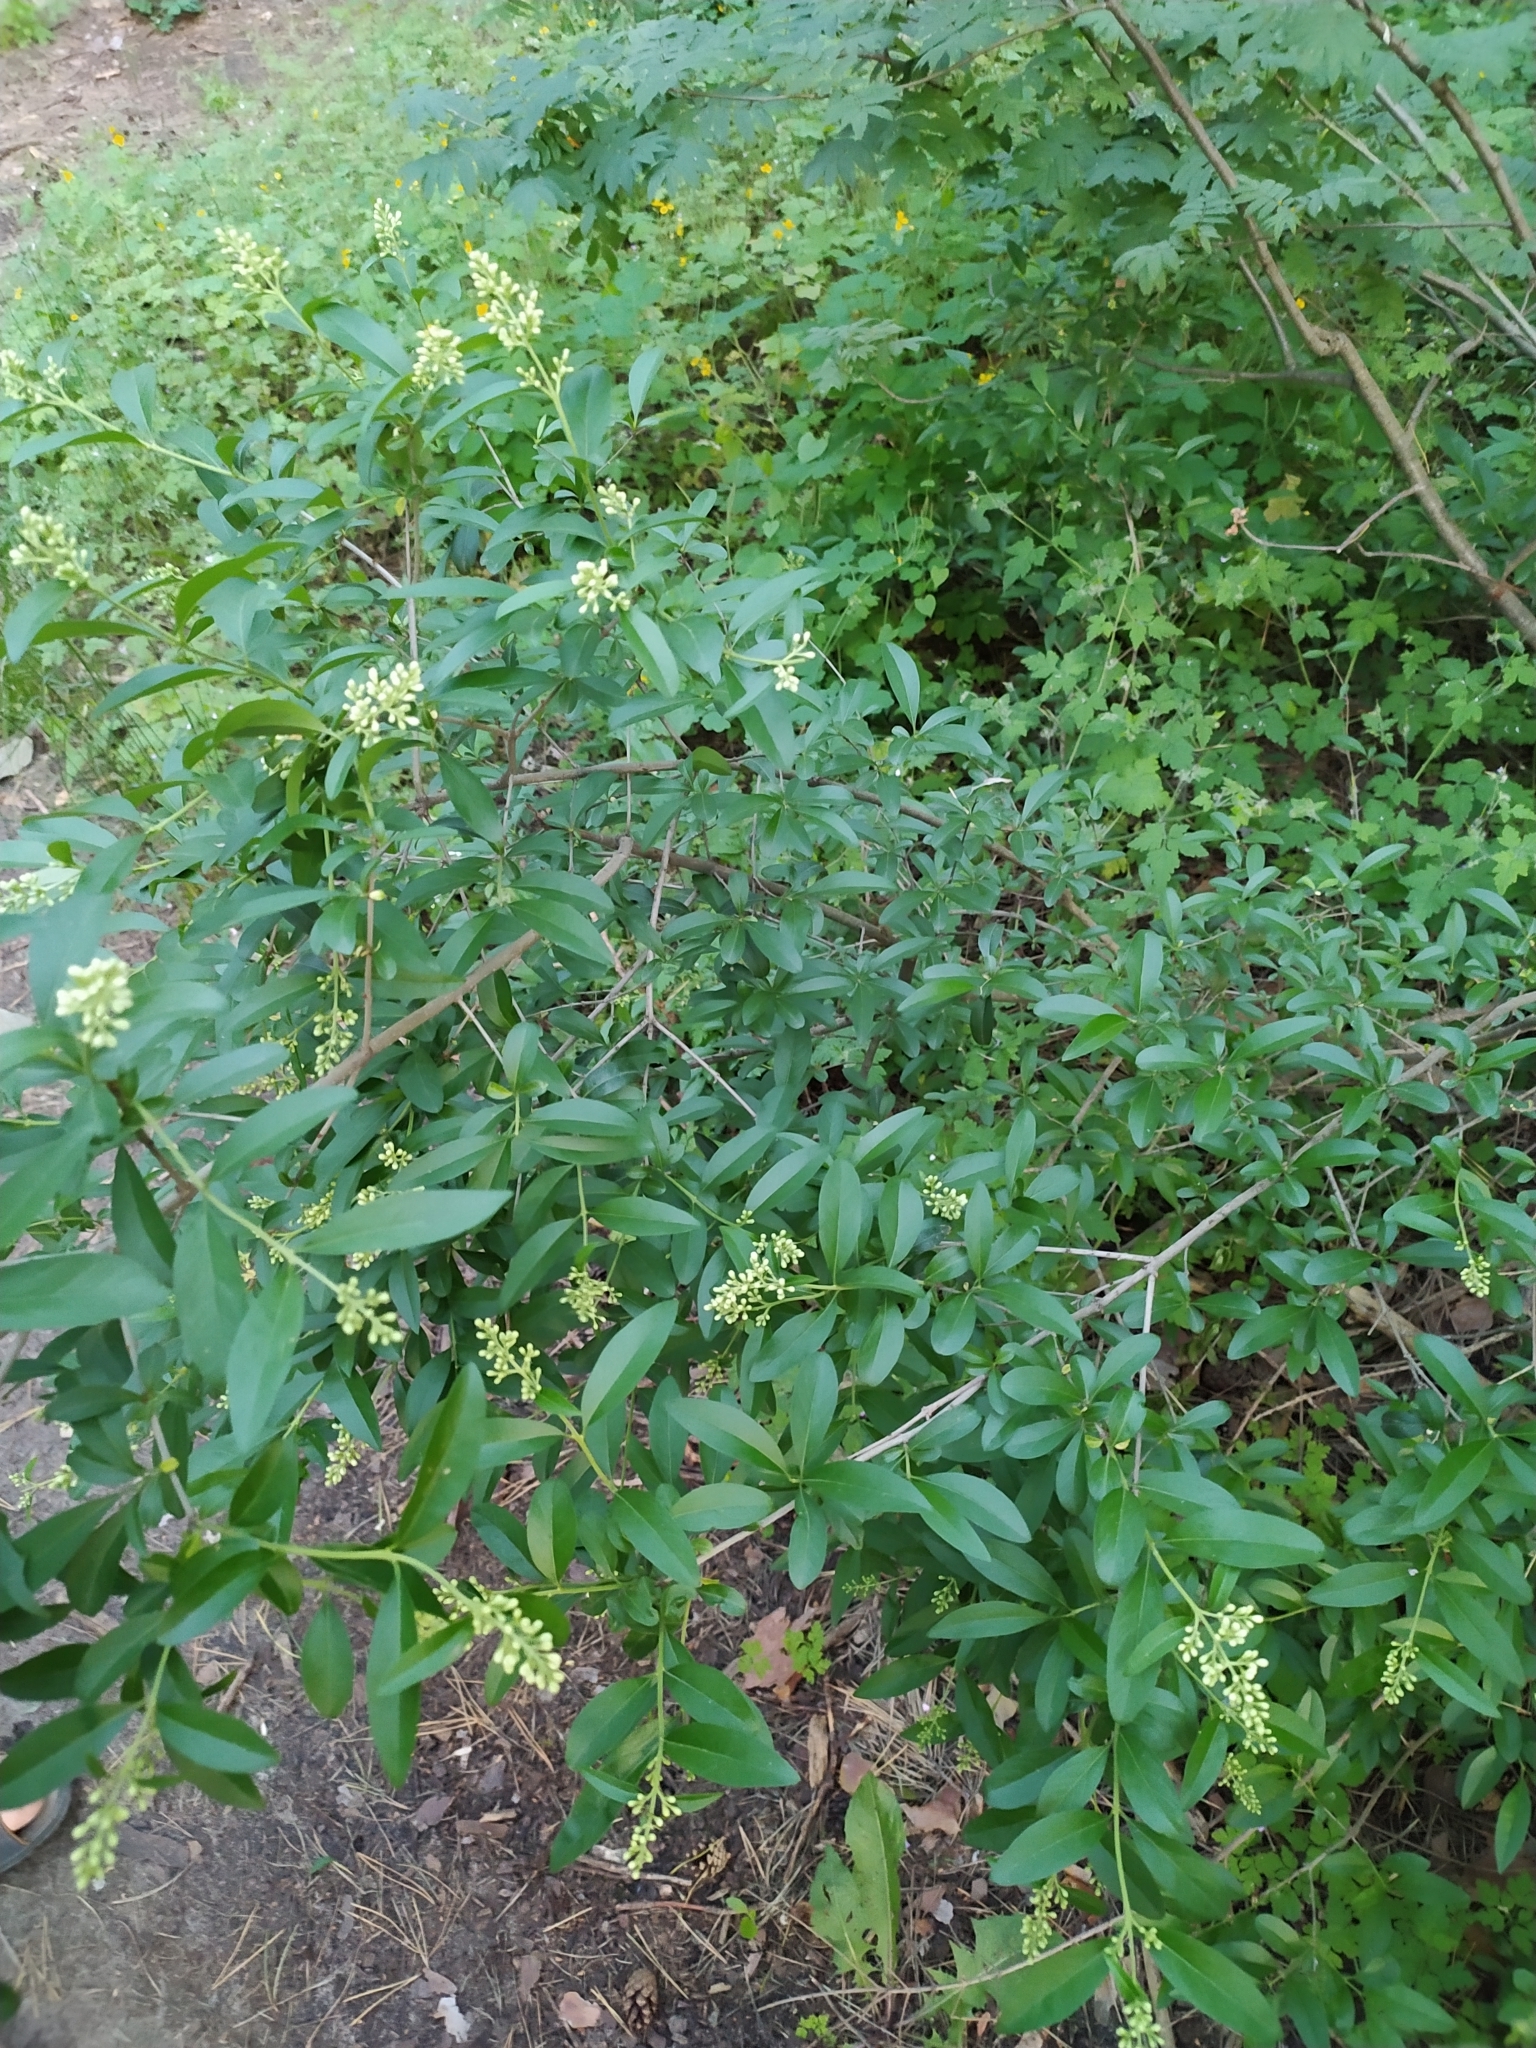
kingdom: Plantae
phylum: Tracheophyta
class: Magnoliopsida
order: Lamiales
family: Oleaceae
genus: Ligustrum
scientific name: Ligustrum vulgare
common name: Wild privet
